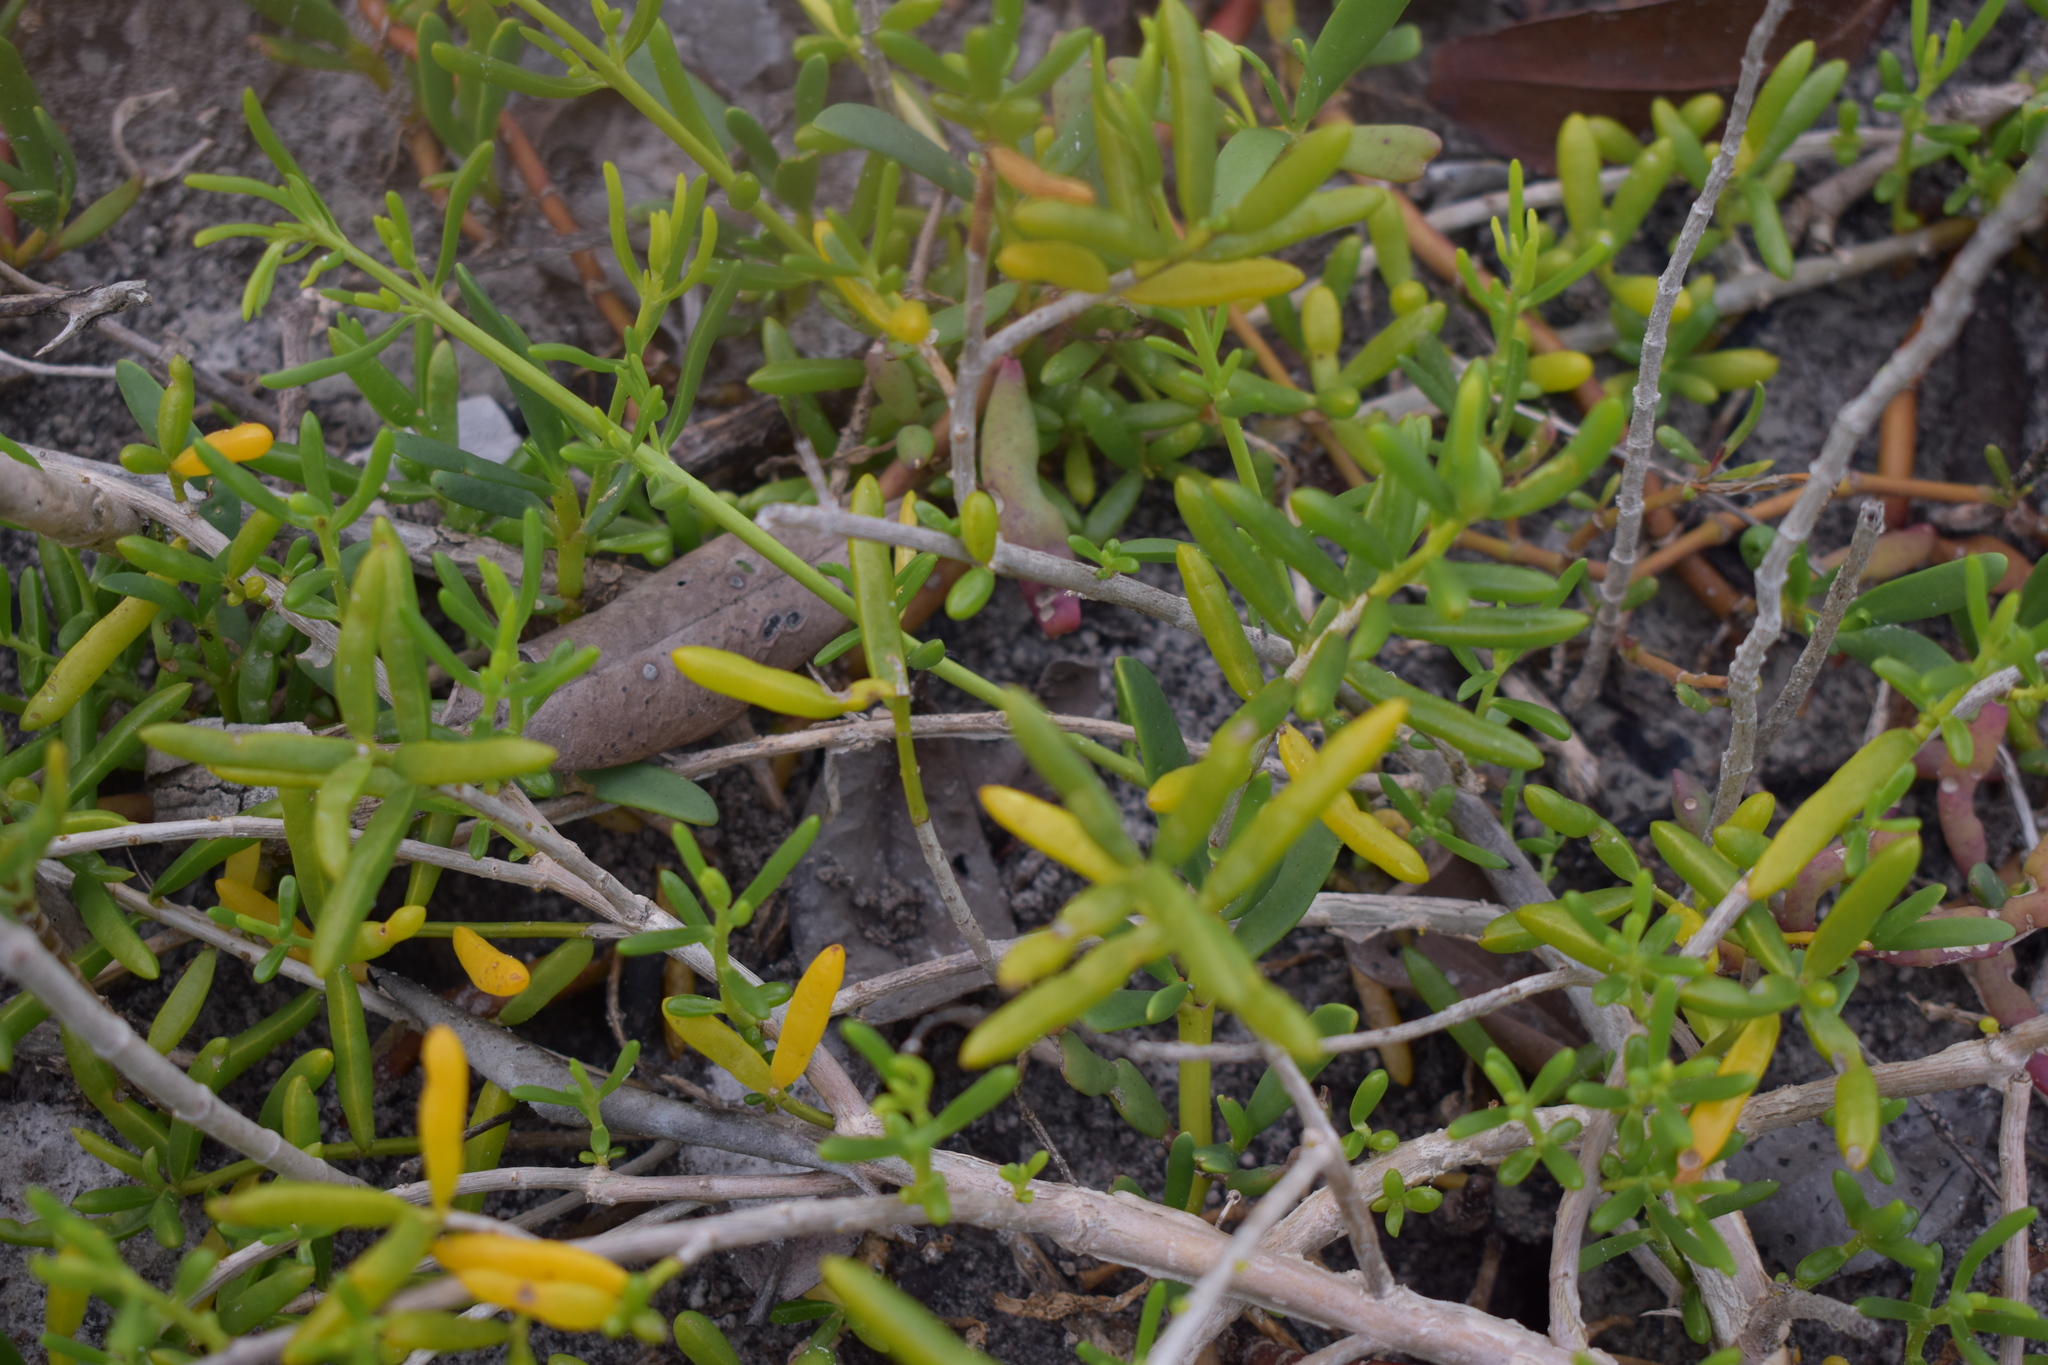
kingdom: Plantae
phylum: Tracheophyta
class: Magnoliopsida
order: Brassicales
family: Bataceae
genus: Batis
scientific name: Batis maritima
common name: Turtleweed
